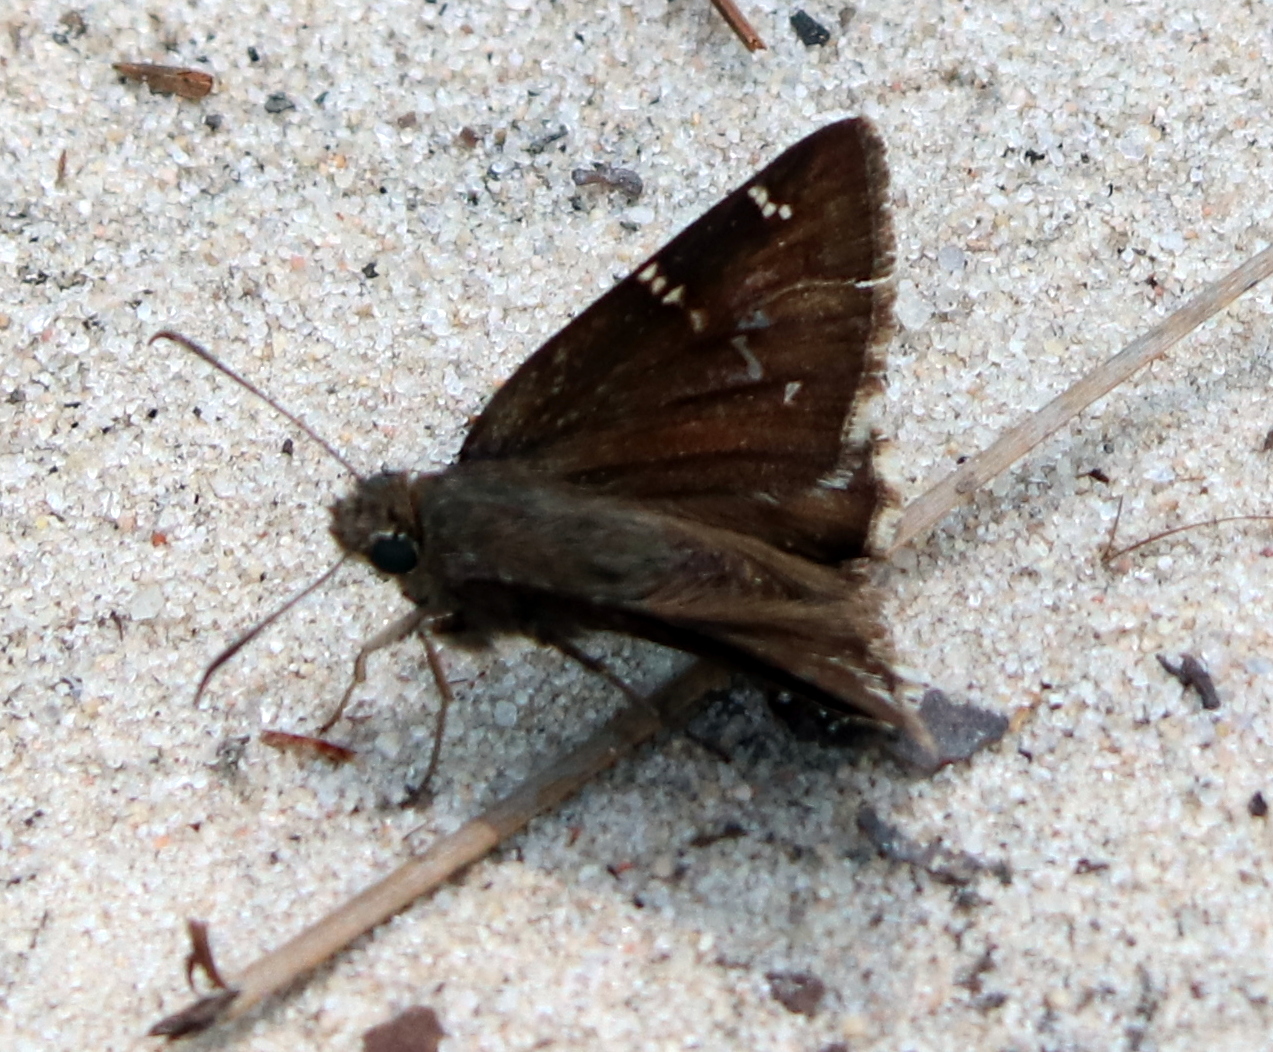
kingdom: Animalia
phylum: Arthropoda
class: Insecta
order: Lepidoptera
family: Hesperiidae
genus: Thorybes
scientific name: Thorybes daunus
